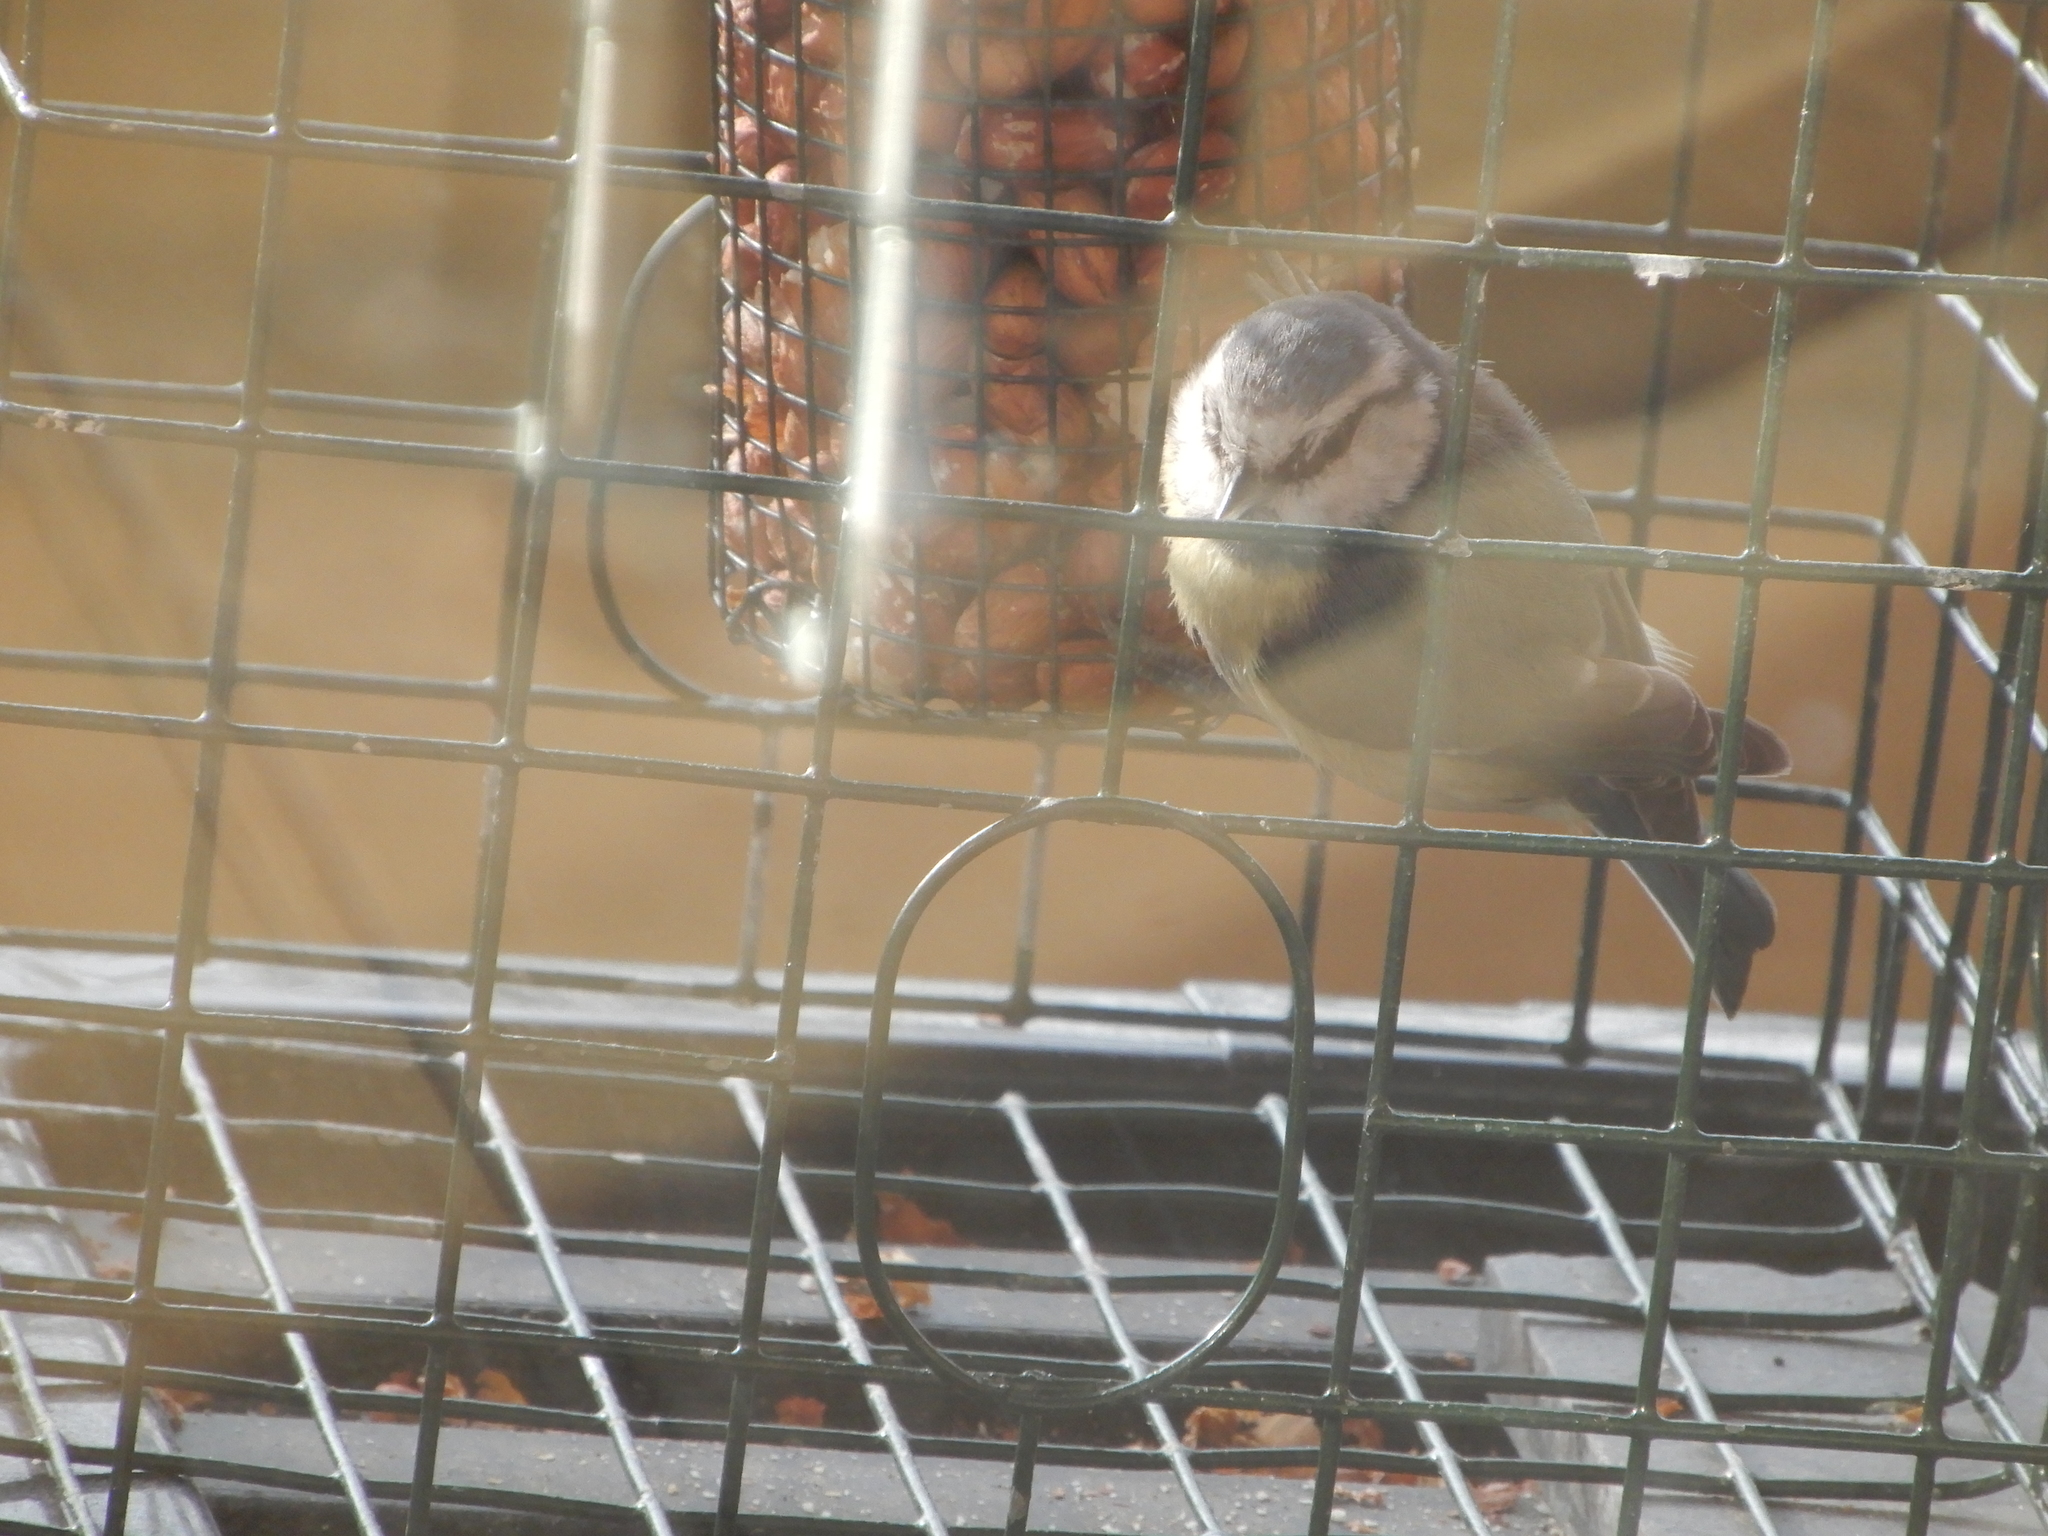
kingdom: Animalia
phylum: Chordata
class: Aves
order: Passeriformes
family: Paridae
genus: Cyanistes
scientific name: Cyanistes caeruleus
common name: Eurasian blue tit
